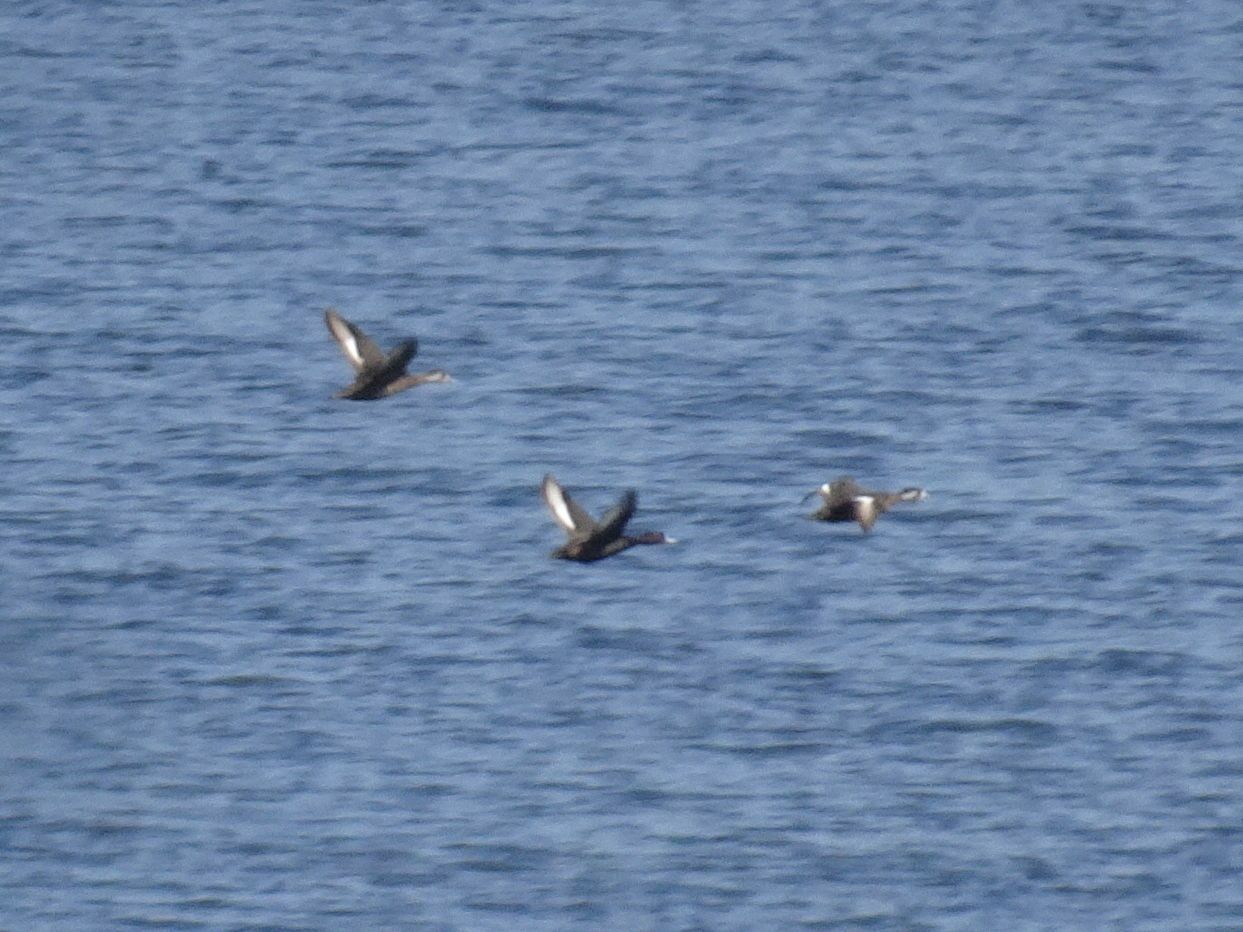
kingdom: Animalia
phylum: Chordata
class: Aves
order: Anseriformes
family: Anatidae
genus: Netta
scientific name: Netta erythrophthalma
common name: Southern pochard
